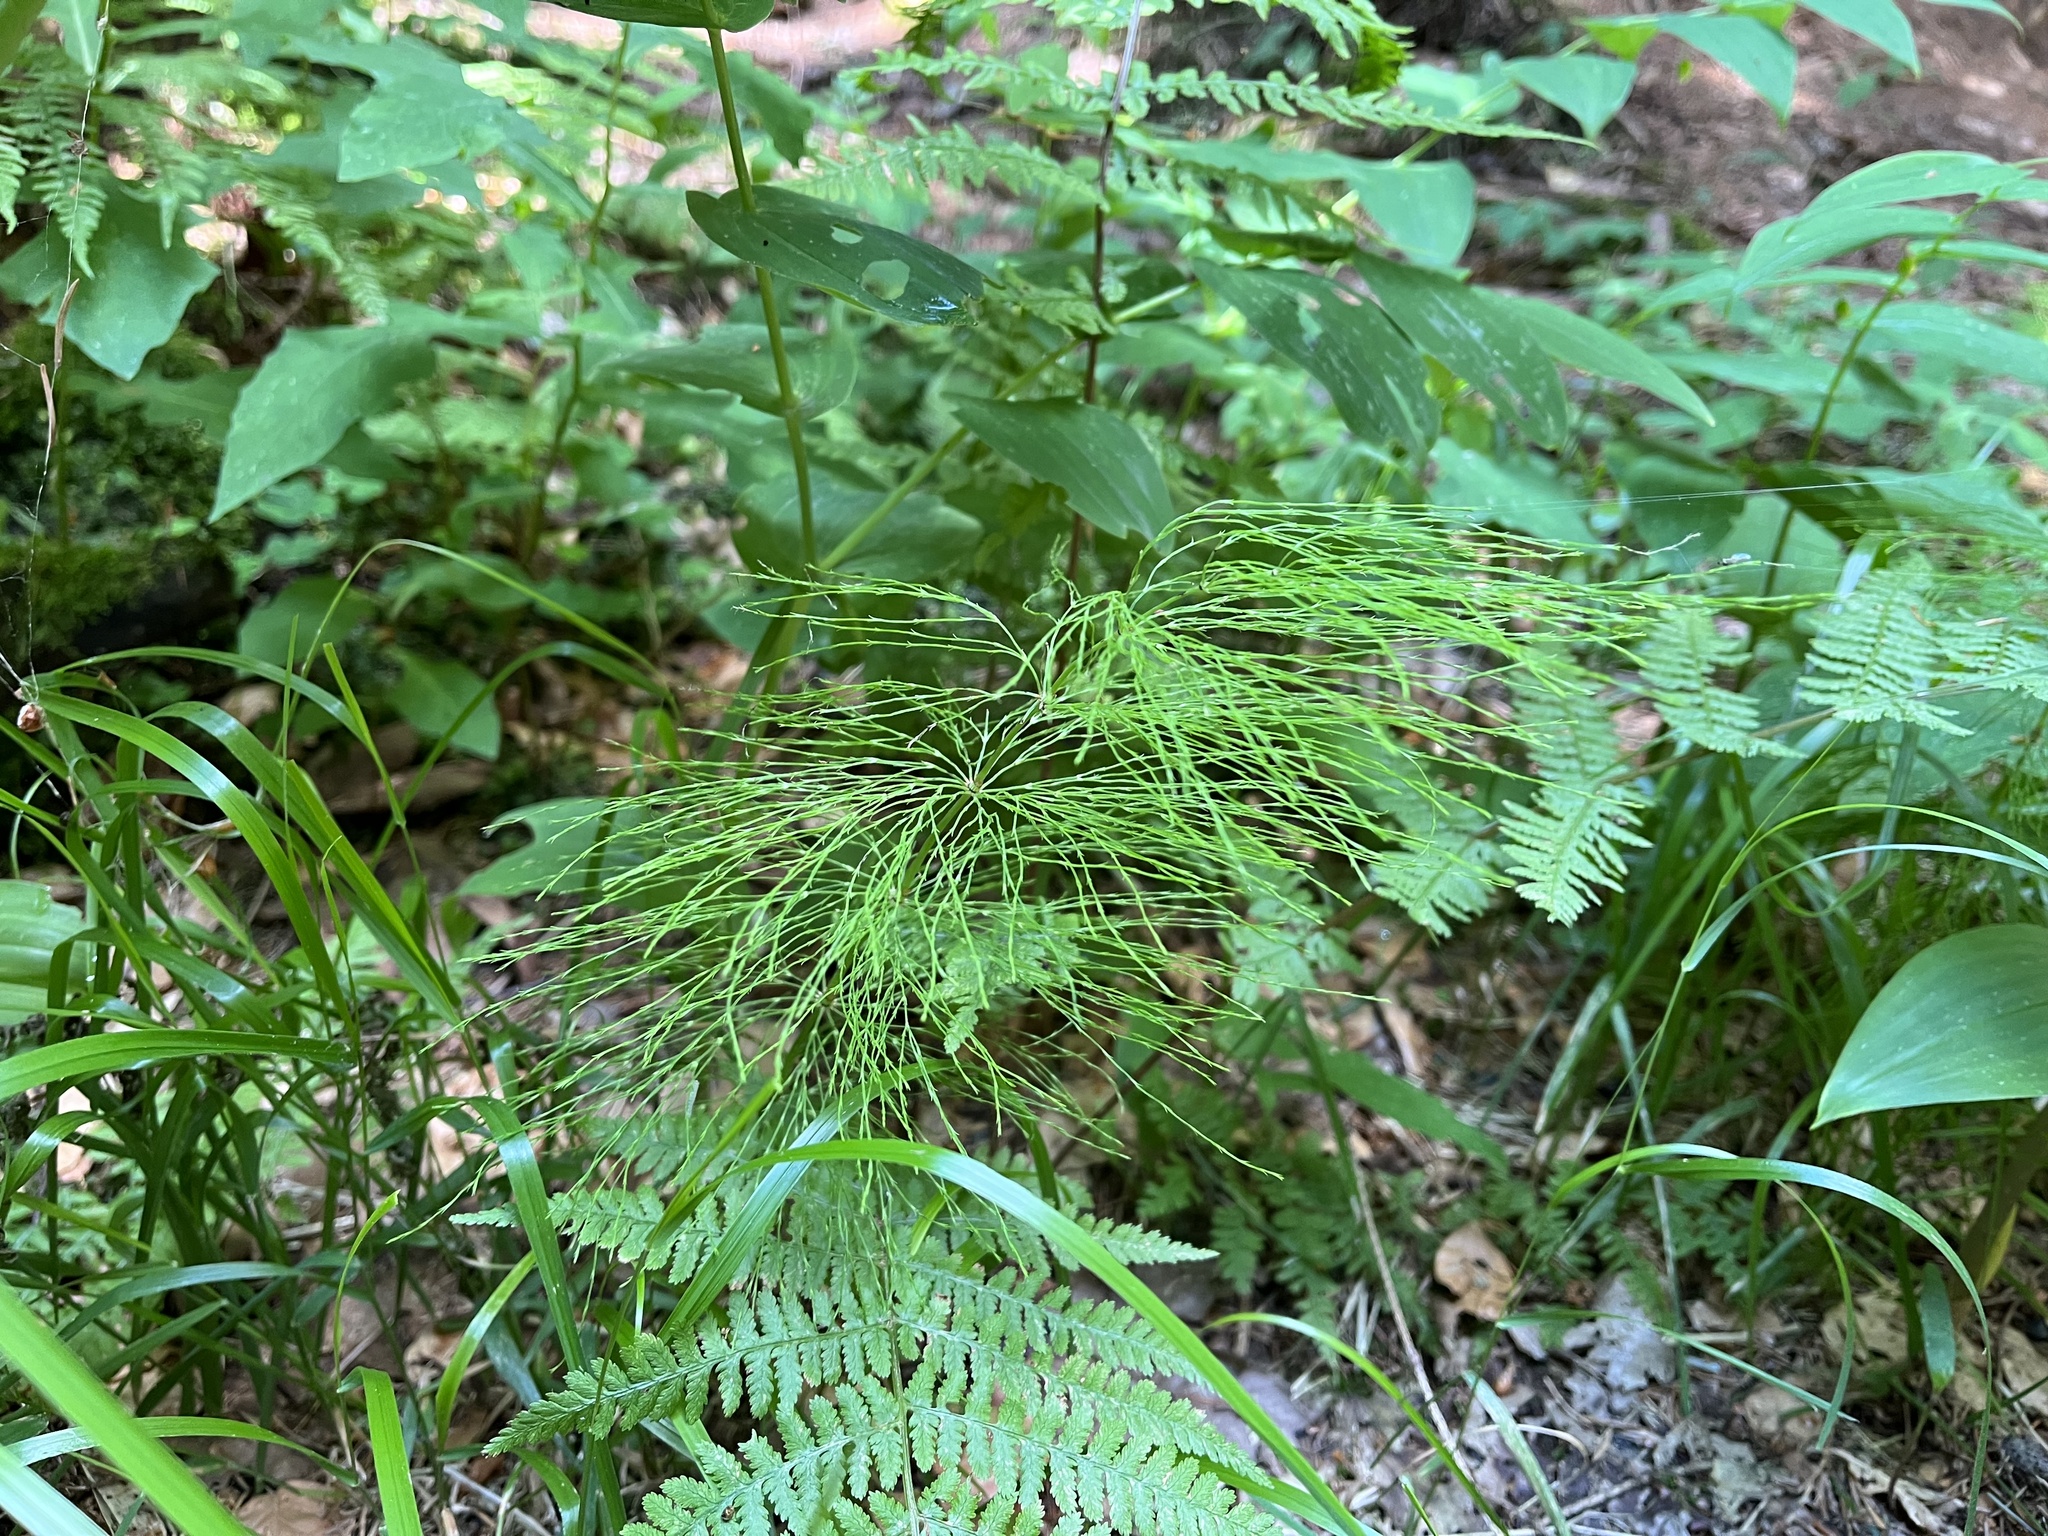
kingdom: Plantae
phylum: Tracheophyta
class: Polypodiopsida
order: Equisetales
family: Equisetaceae
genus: Equisetum
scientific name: Equisetum sylvaticum
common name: Wood horsetail
